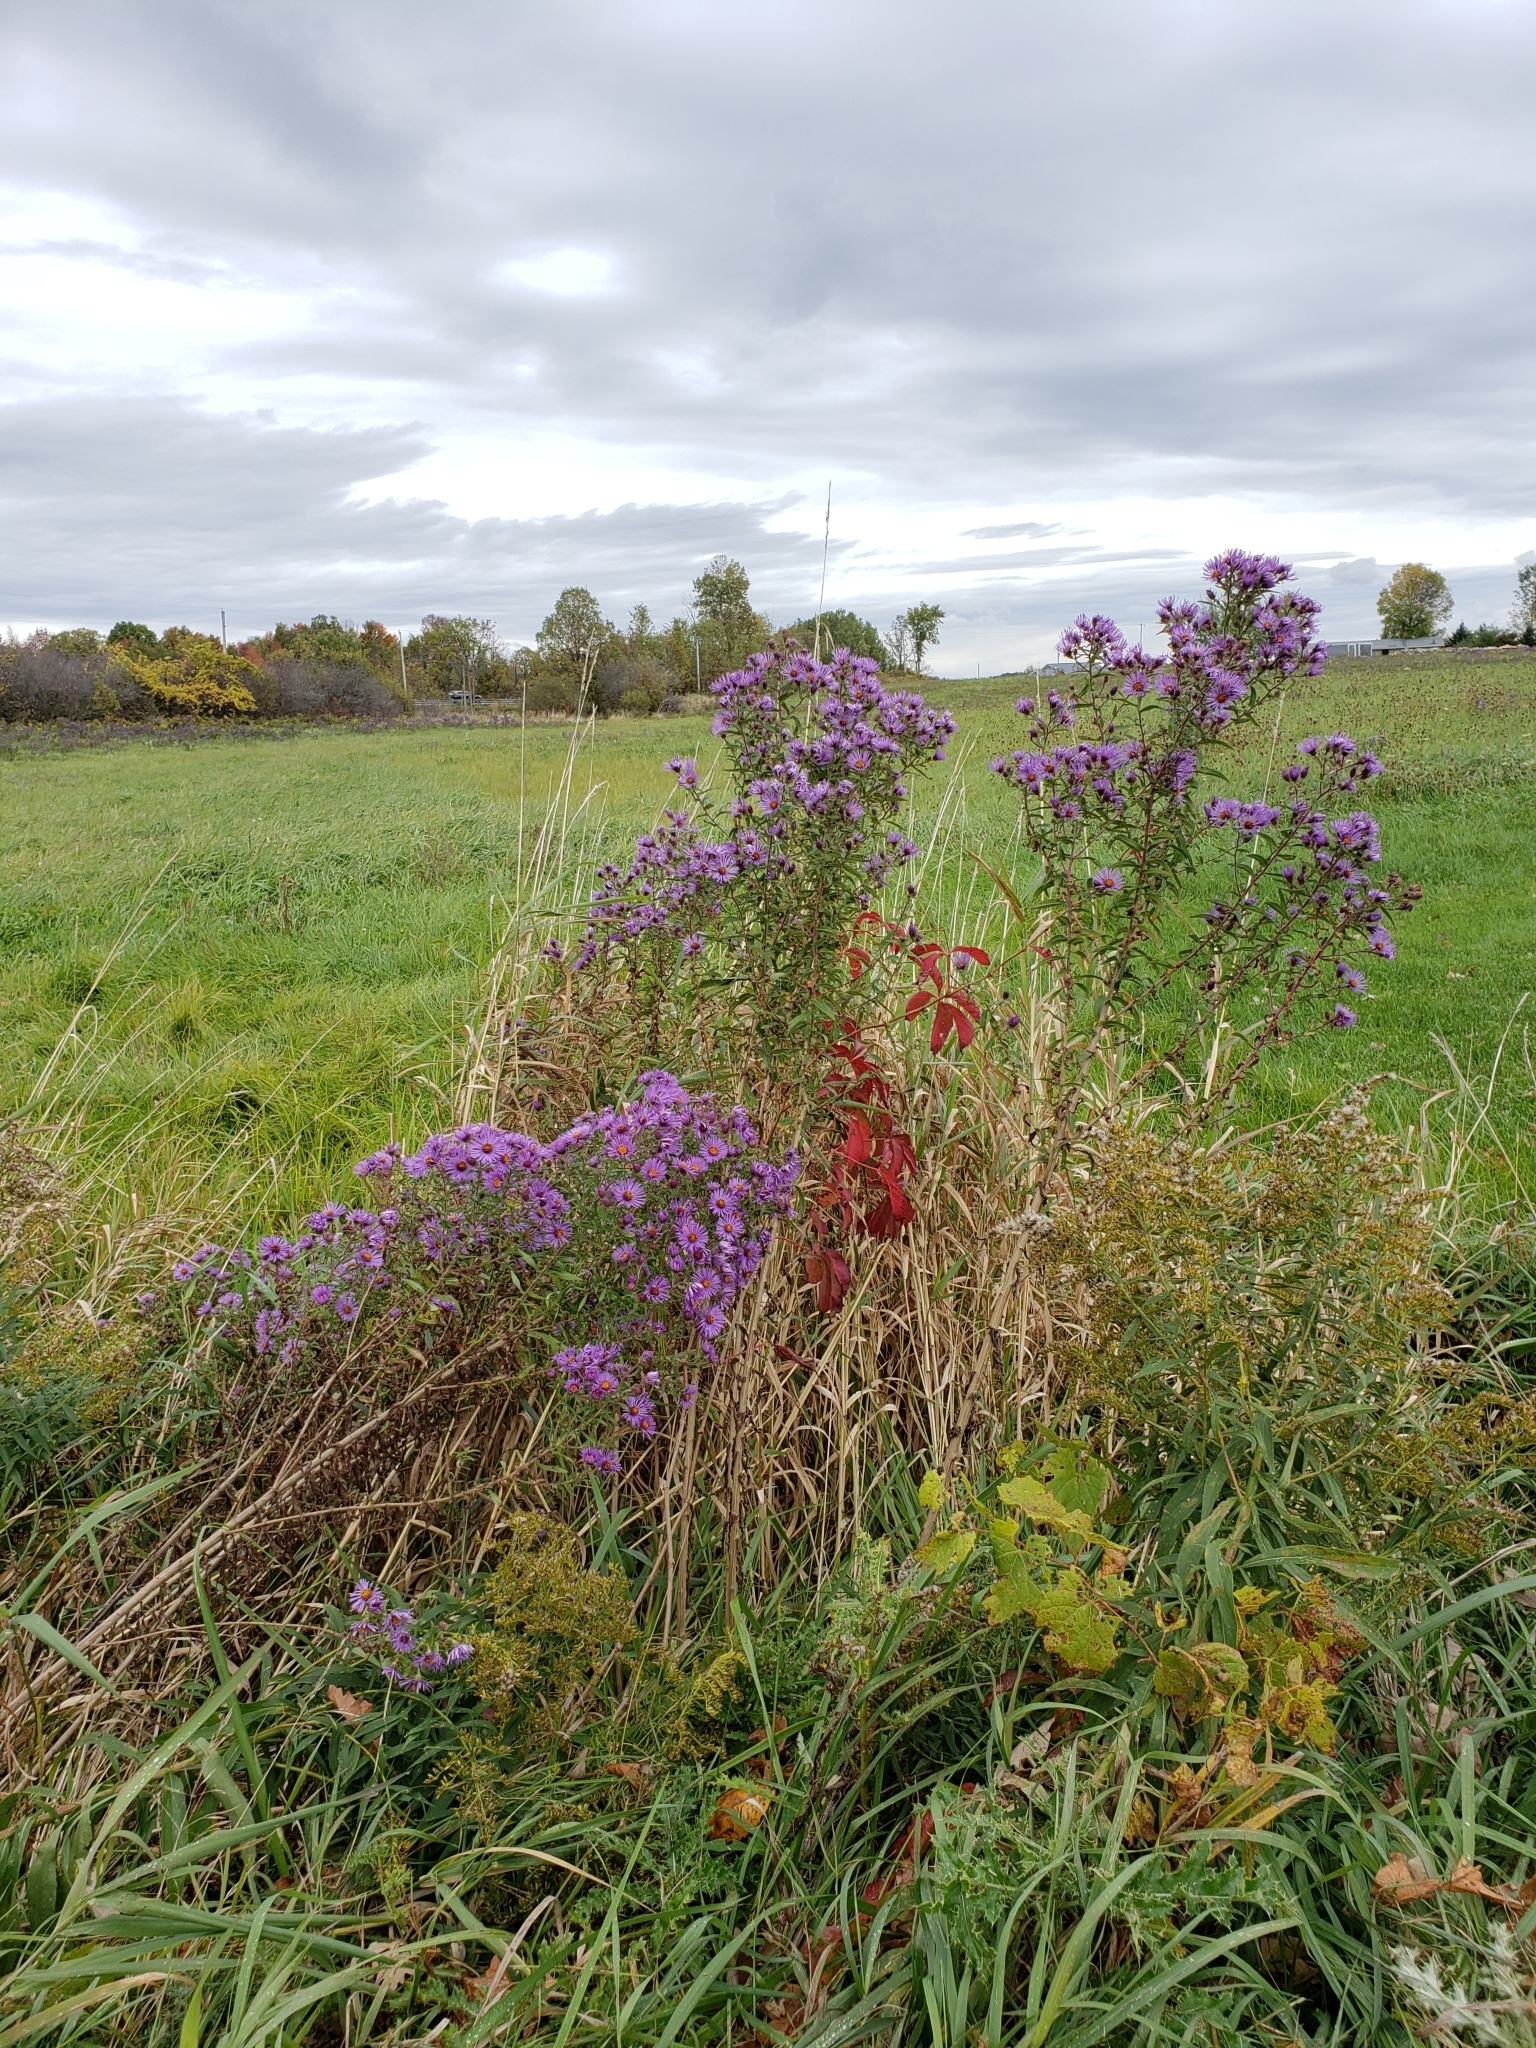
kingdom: Plantae
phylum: Tracheophyta
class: Magnoliopsida
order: Asterales
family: Asteraceae
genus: Symphyotrichum
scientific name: Symphyotrichum novae-angliae
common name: Michaelmas daisy
